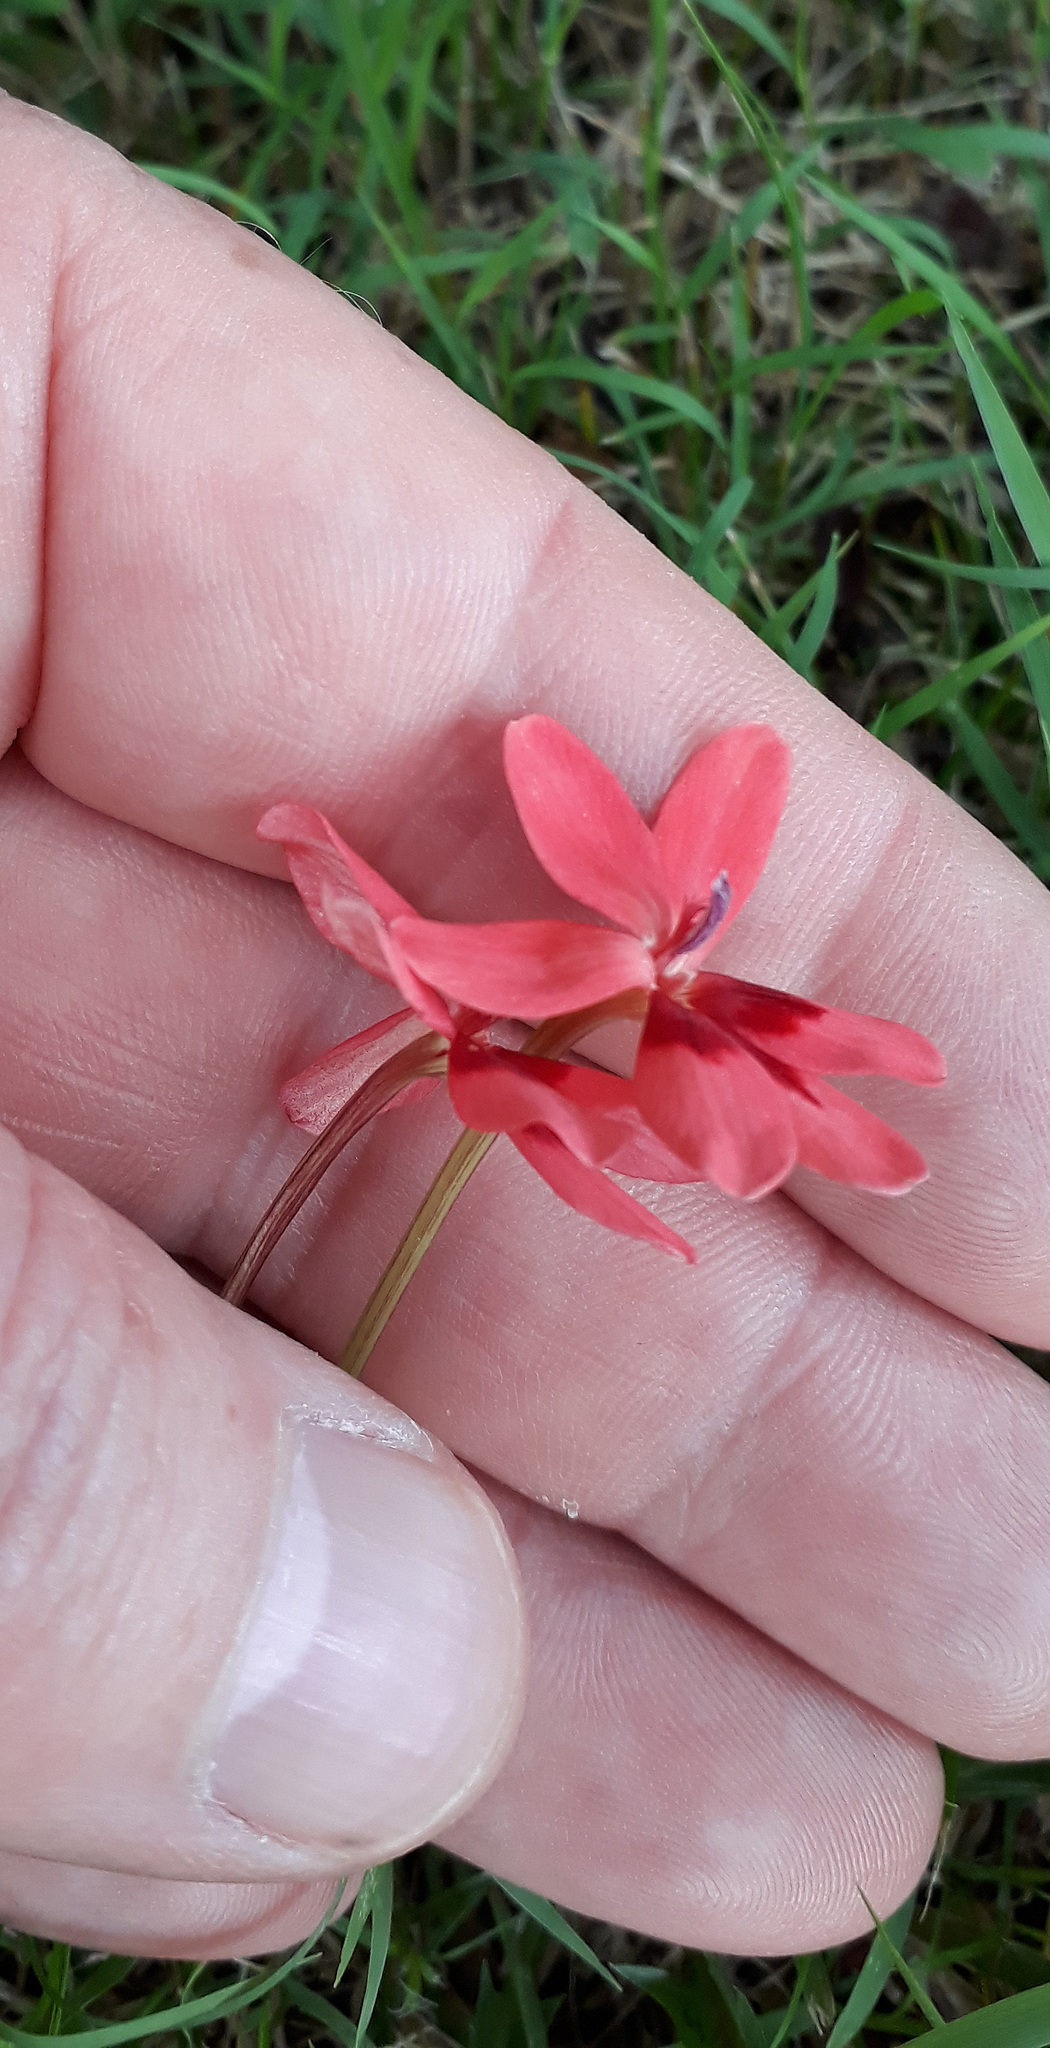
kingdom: Plantae
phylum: Tracheophyta
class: Liliopsida
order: Asparagales
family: Iridaceae
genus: Freesia
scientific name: Freesia laxa
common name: False freesia
